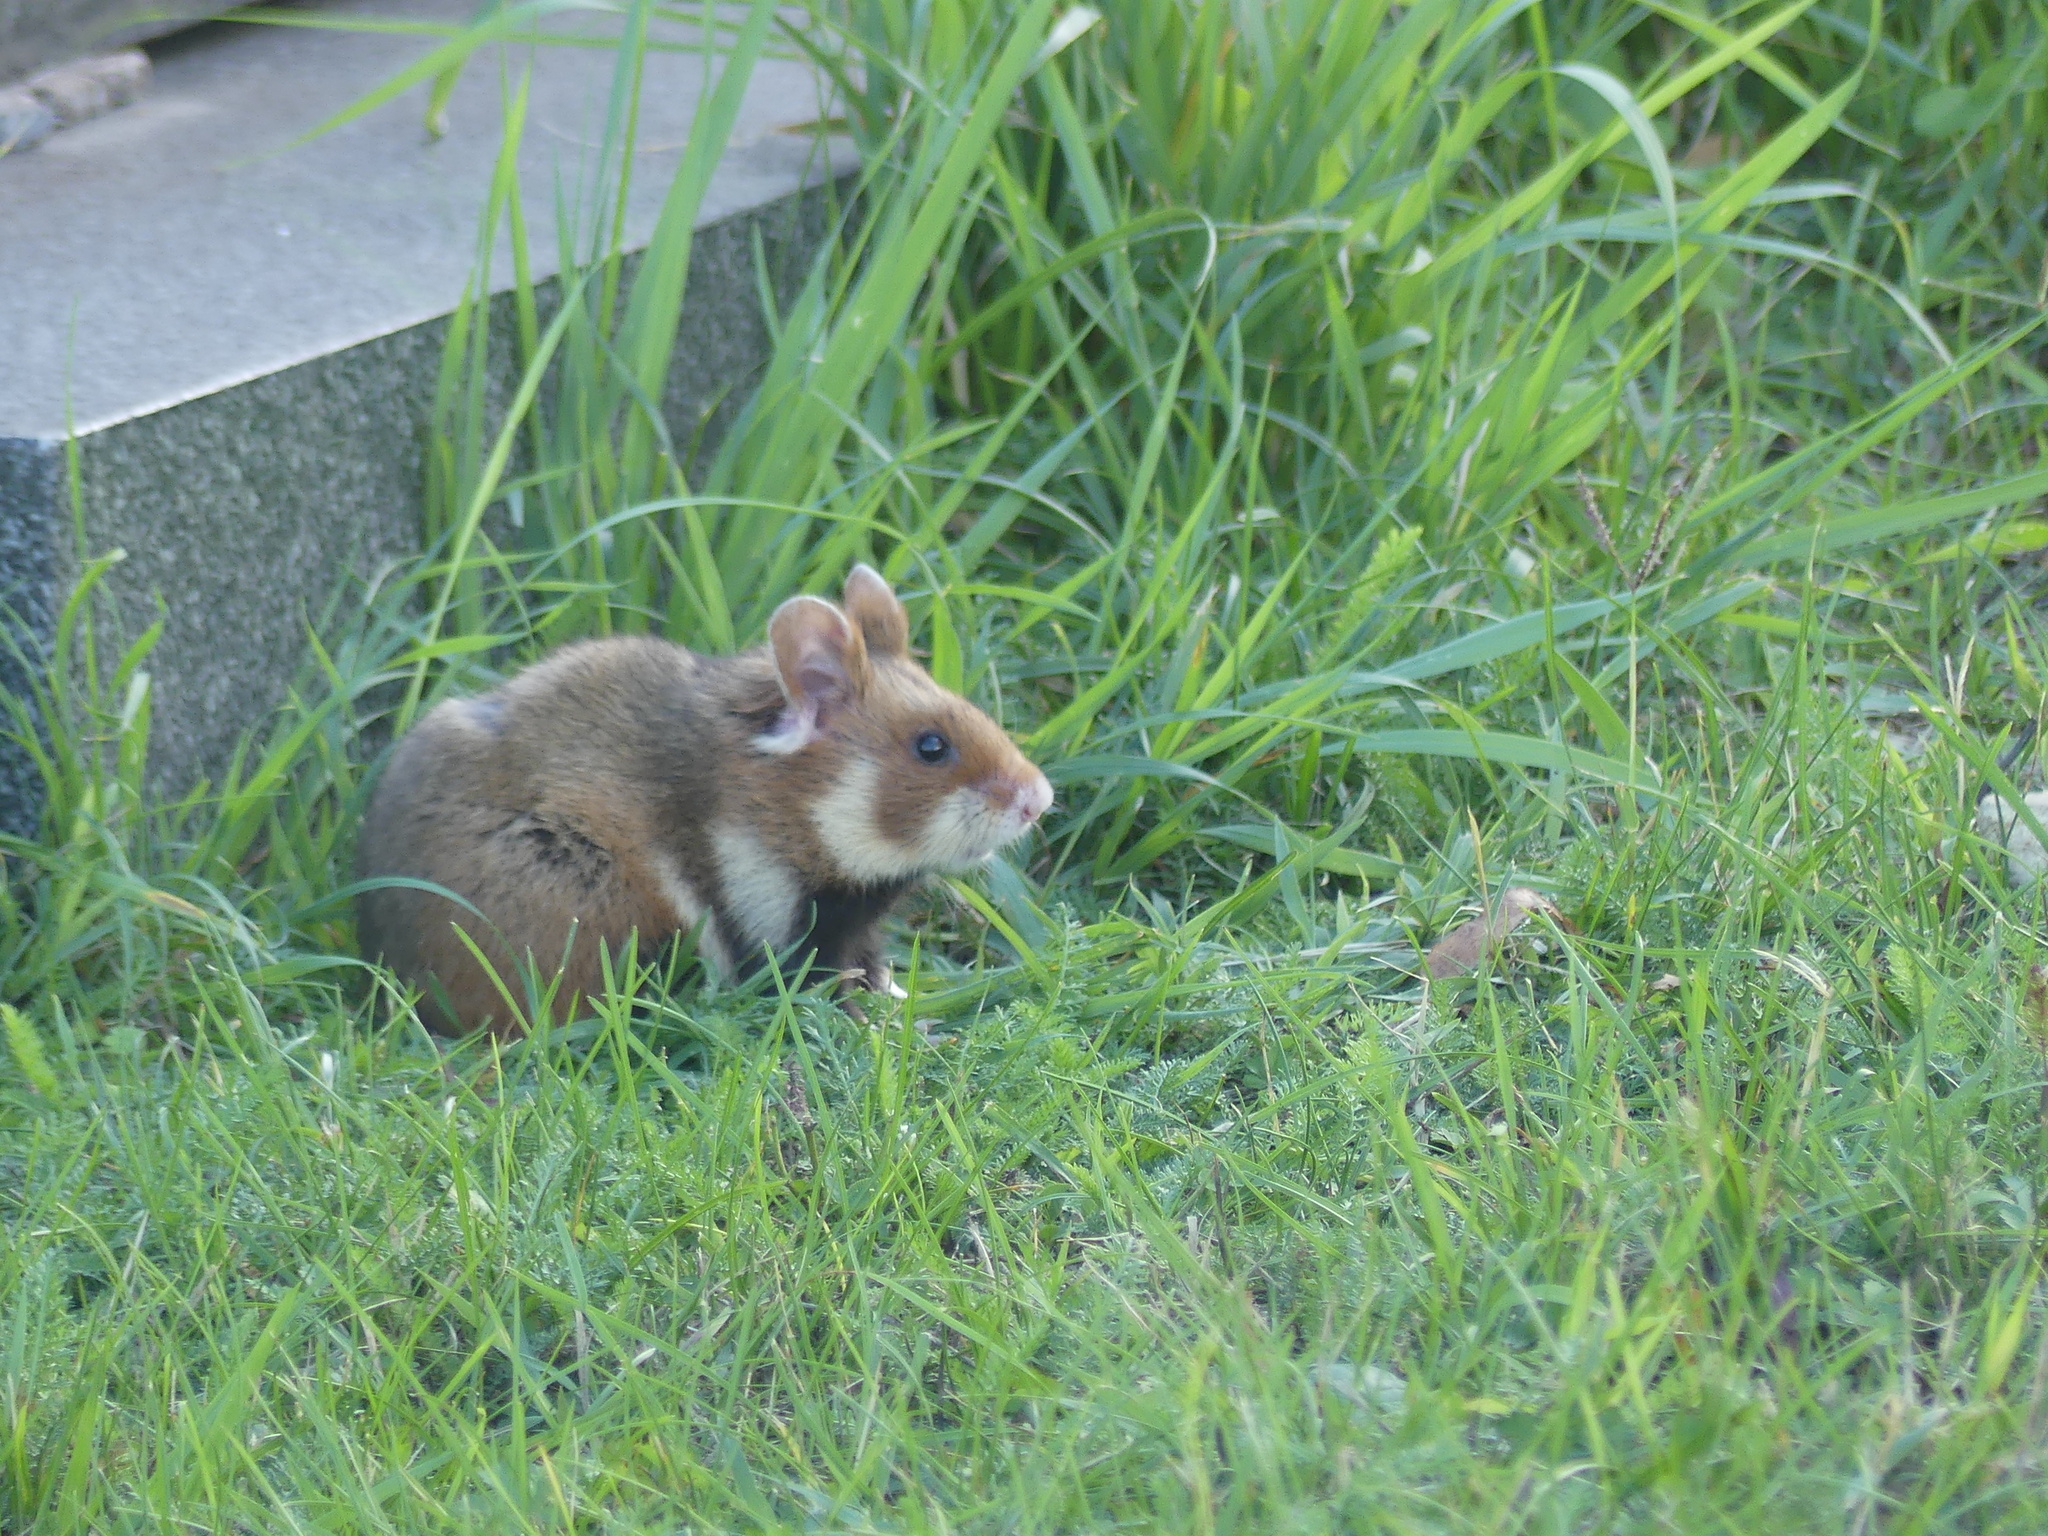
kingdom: Animalia
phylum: Chordata
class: Mammalia
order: Rodentia
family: Cricetidae
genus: Cricetus
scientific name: Cricetus cricetus
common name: Common hamster
